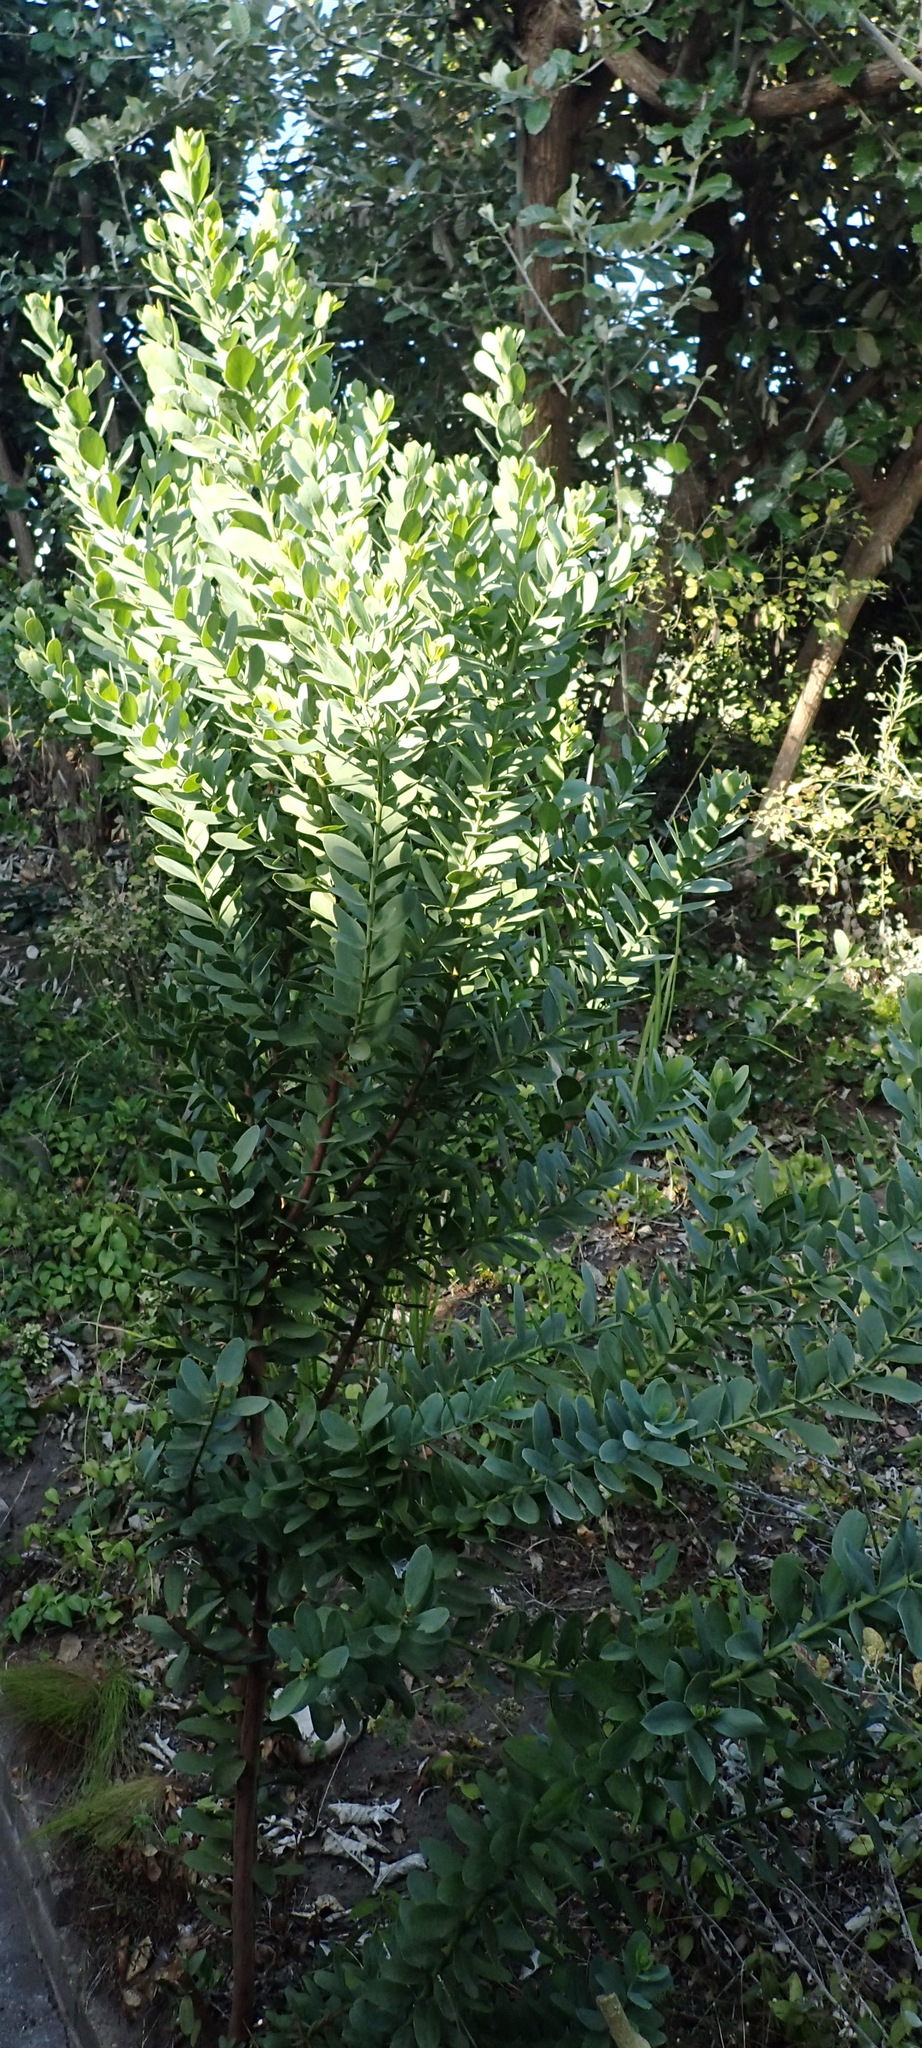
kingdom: Plantae
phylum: Tracheophyta
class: Magnoliopsida
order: Santalales
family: Santalaceae
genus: Osyris
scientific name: Osyris compressa
